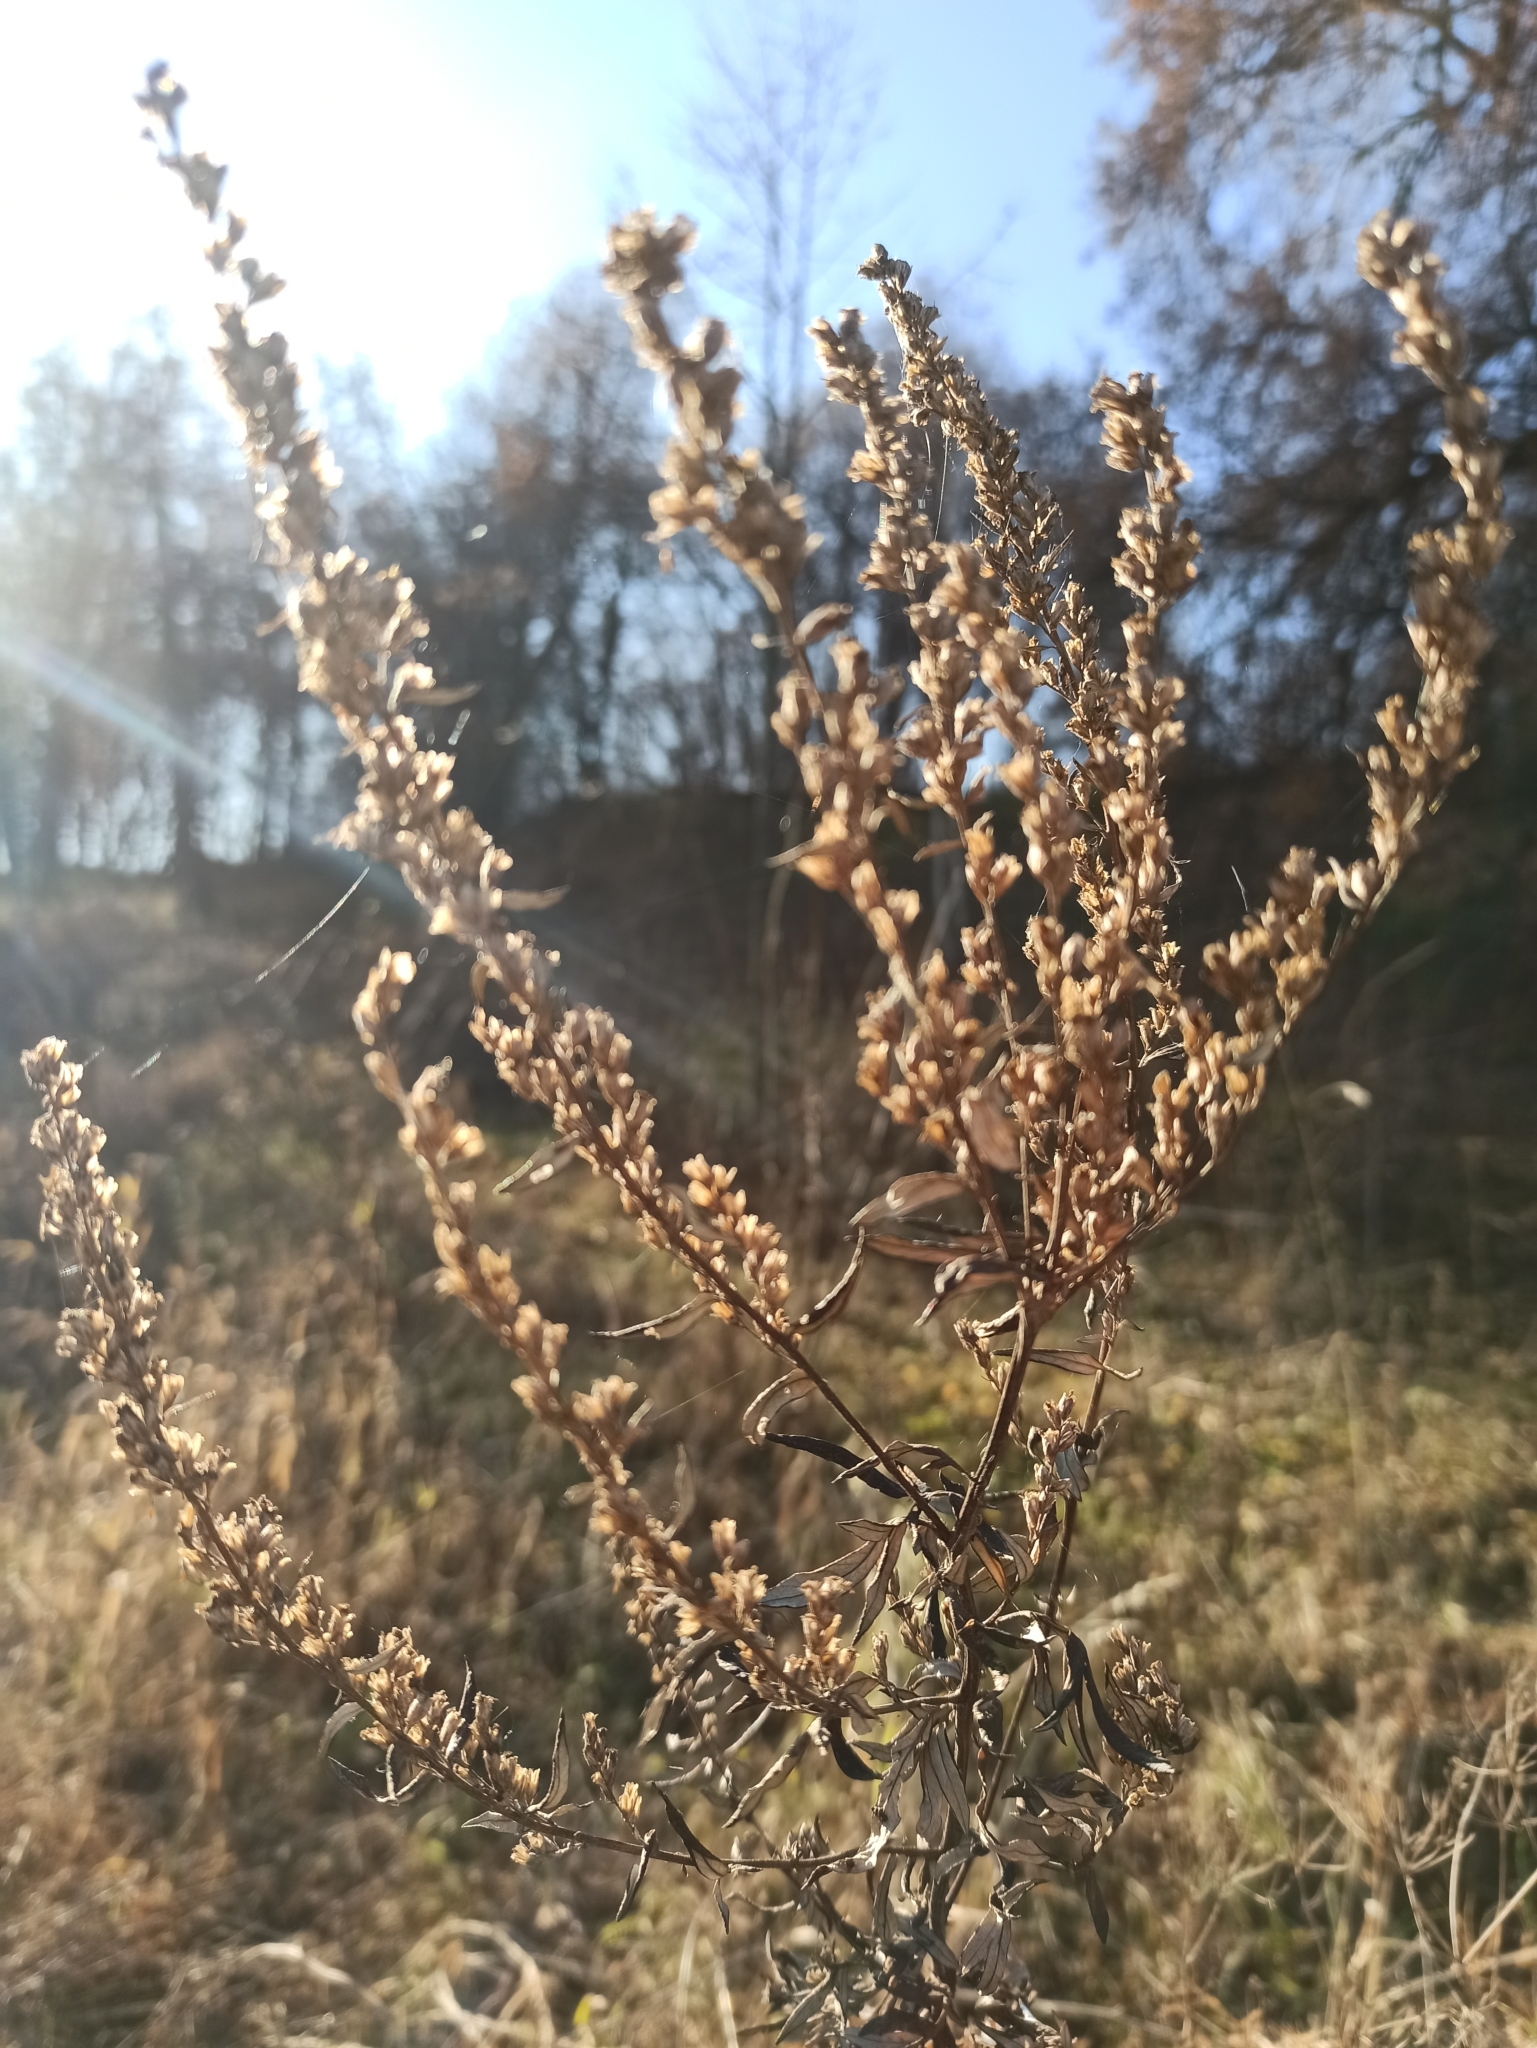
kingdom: Plantae
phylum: Tracheophyta
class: Magnoliopsida
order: Asterales
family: Asteraceae
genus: Artemisia
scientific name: Artemisia vulgaris
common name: Mugwort
